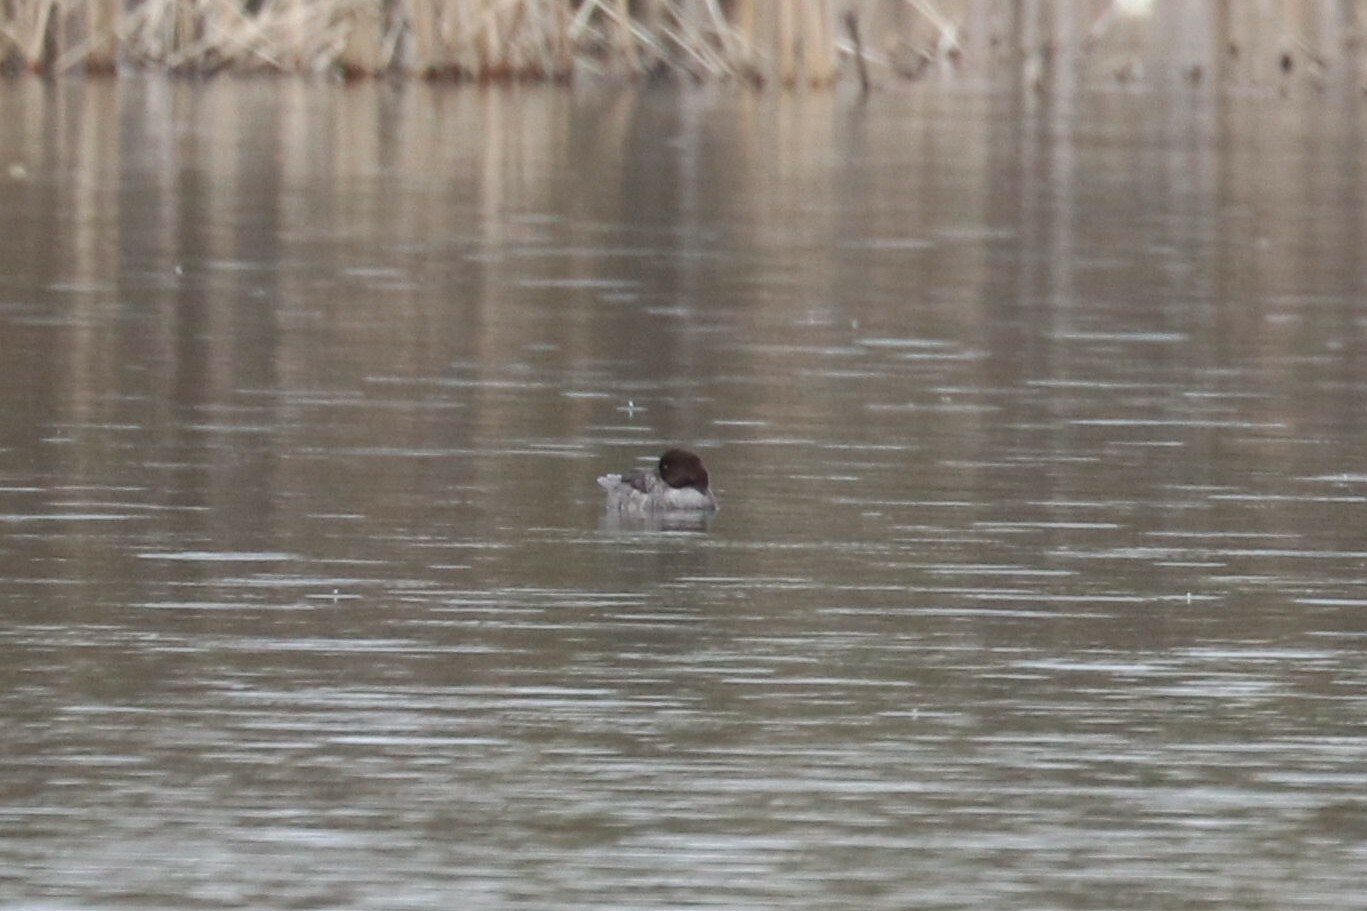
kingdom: Animalia
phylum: Chordata
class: Aves
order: Anseriformes
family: Anatidae
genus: Bucephala
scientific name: Bucephala clangula
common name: Common goldeneye
